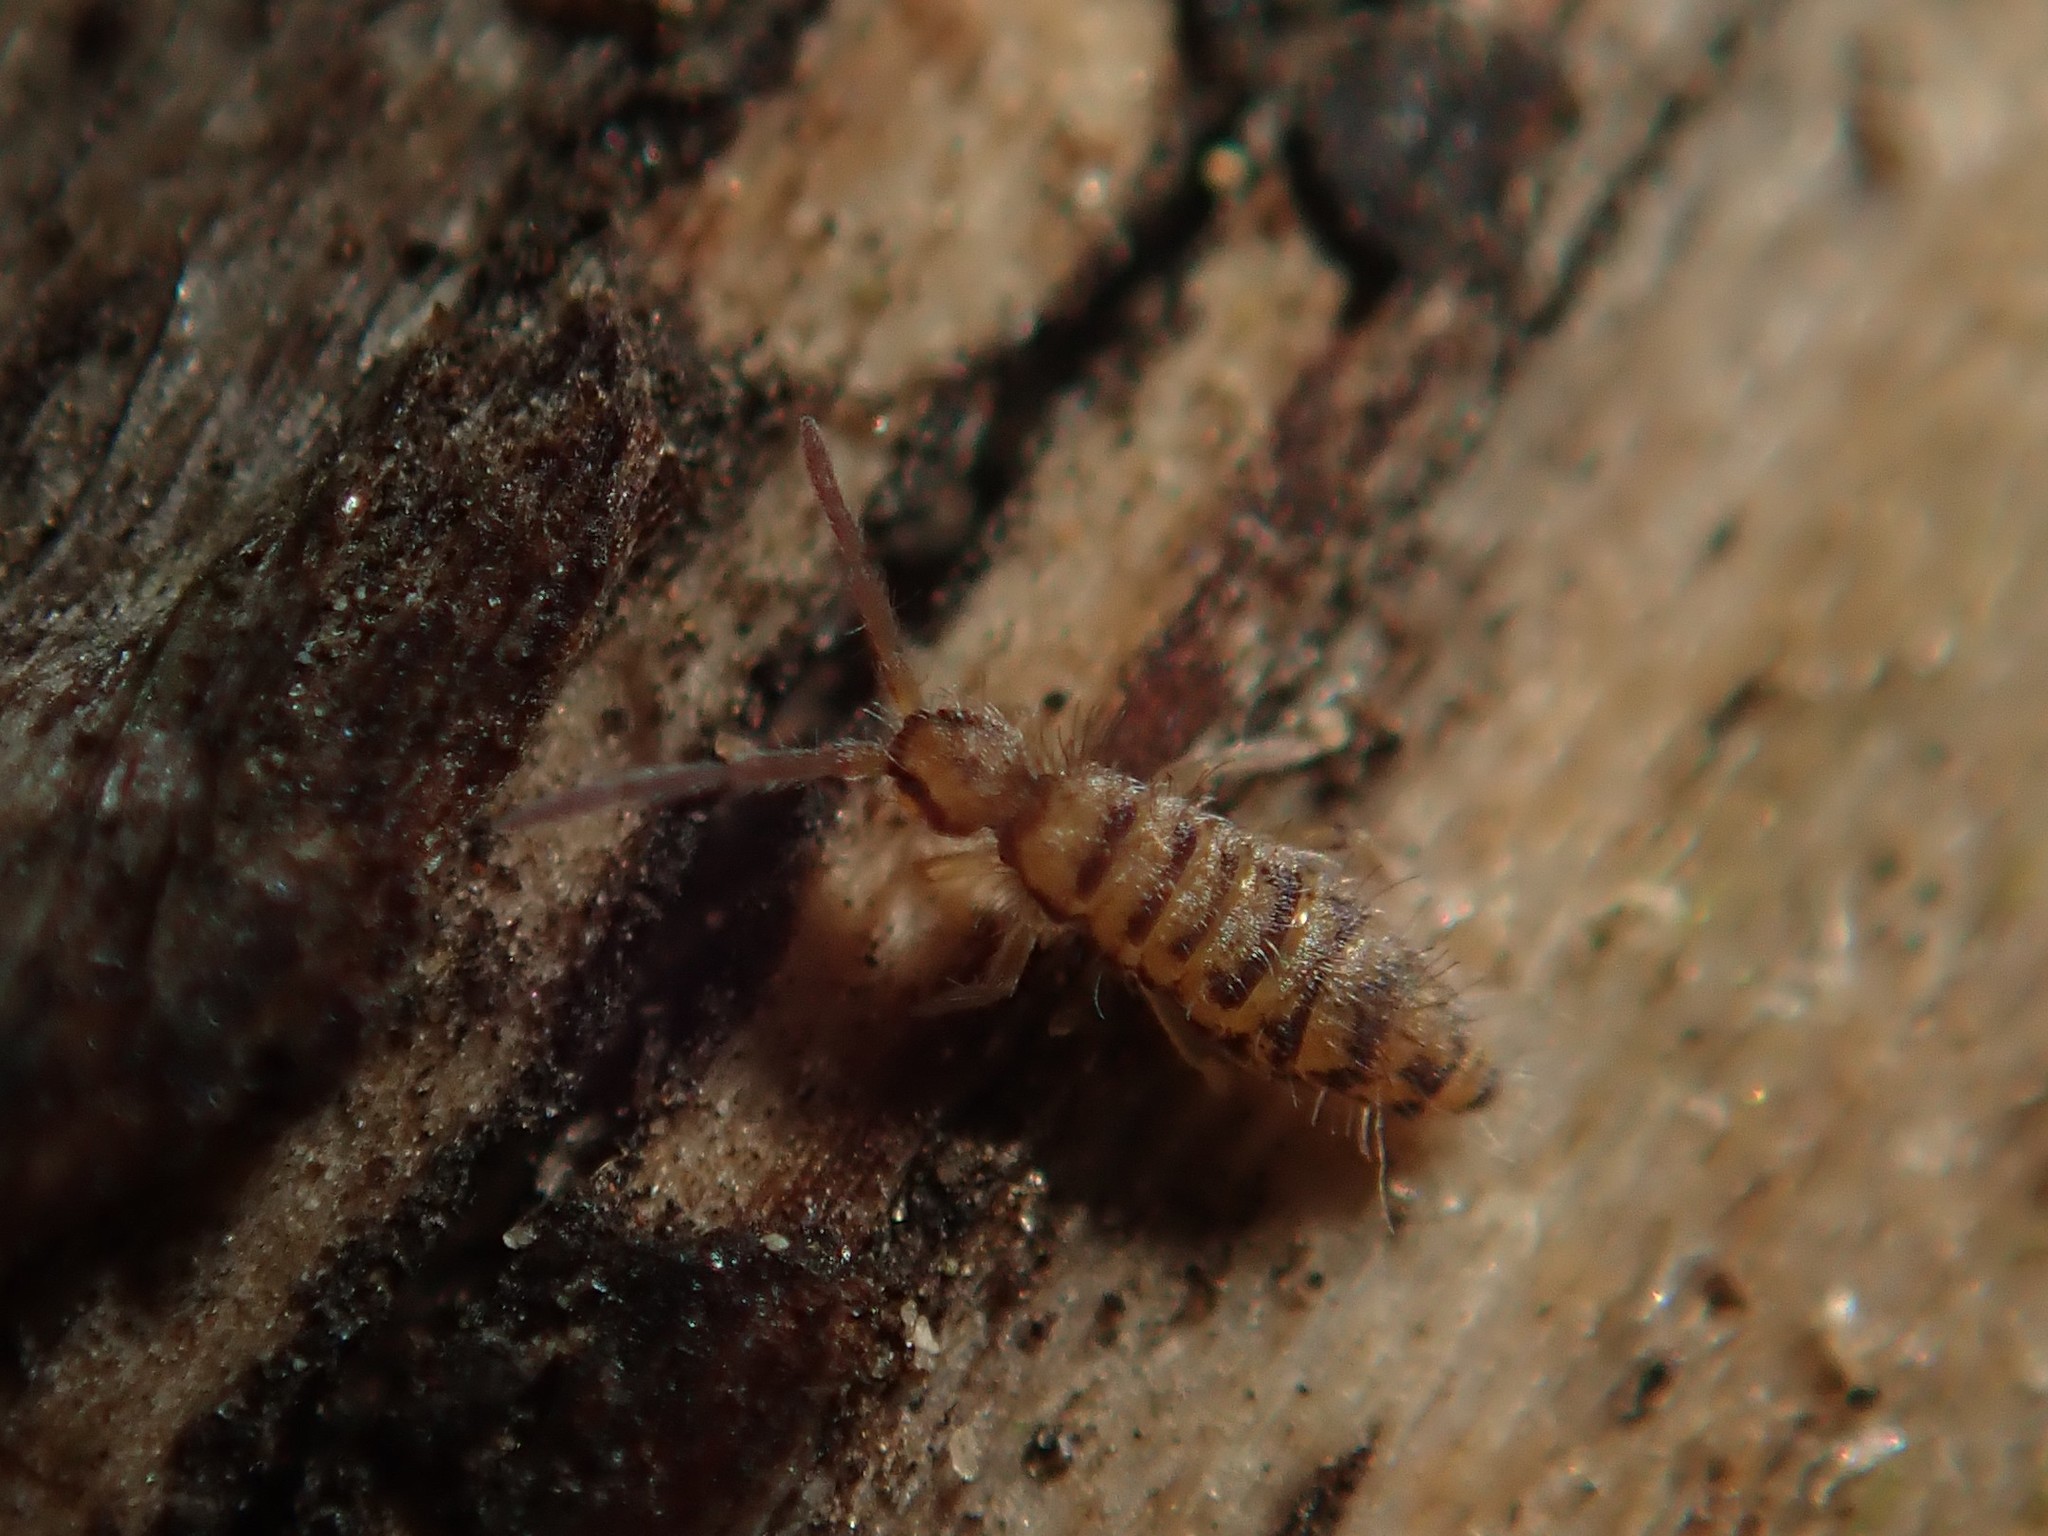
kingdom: Animalia
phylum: Arthropoda
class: Collembola
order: Entomobryomorpha
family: Entomobryidae
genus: Entomobrya
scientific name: Entomobrya multifasciata
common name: Springtail
